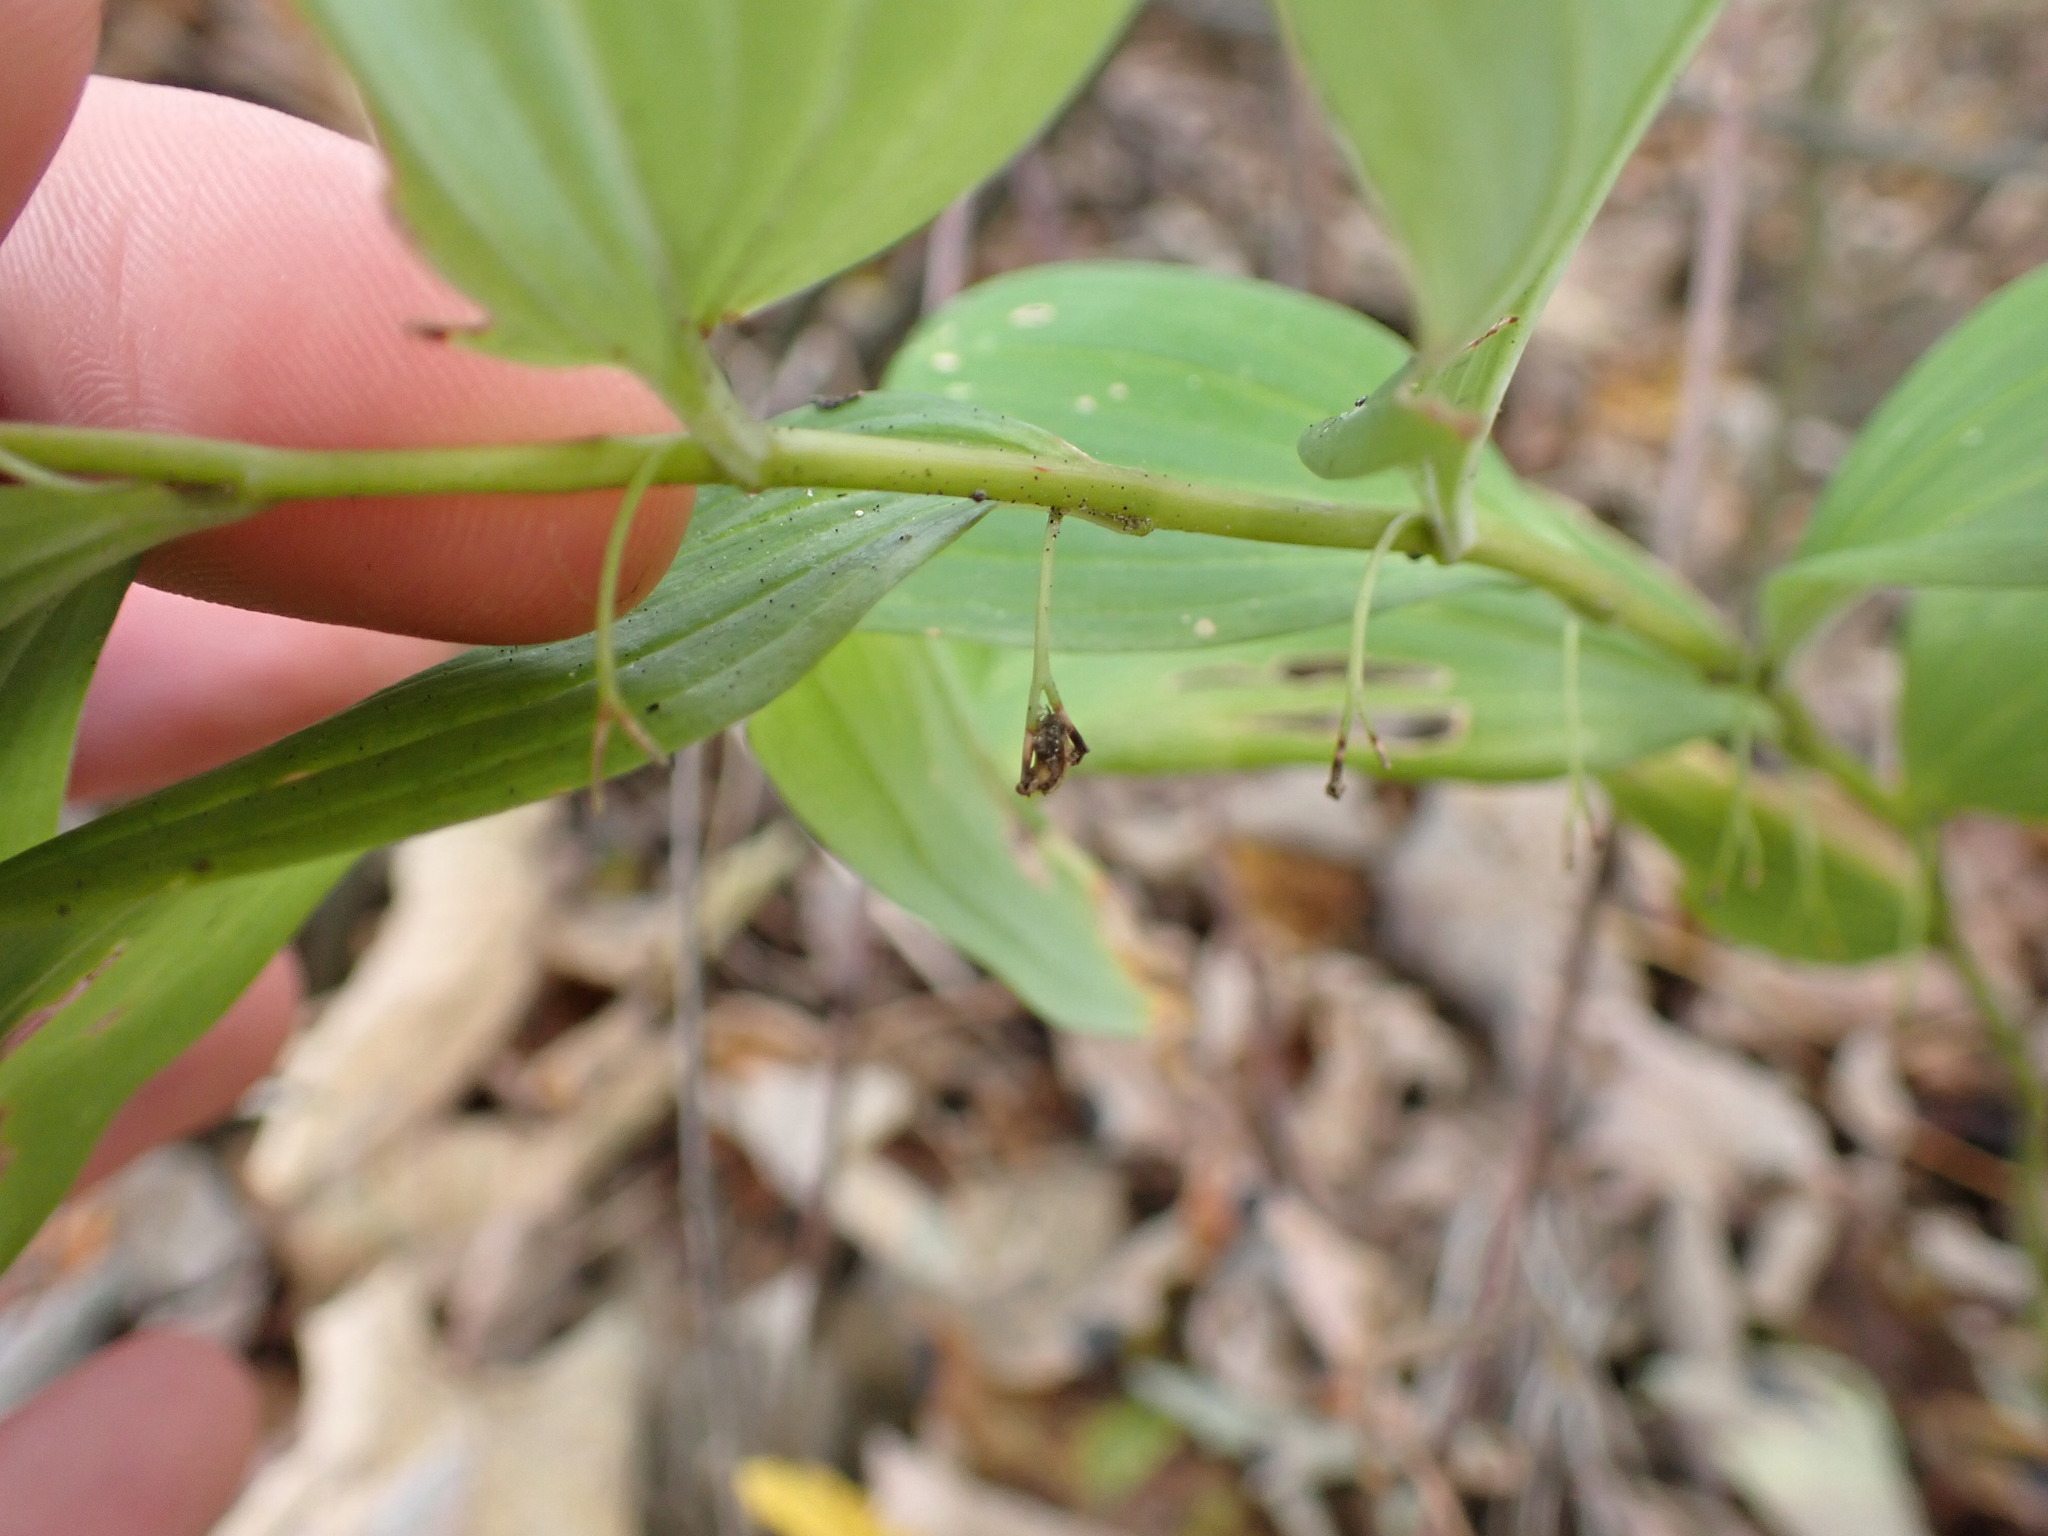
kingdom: Plantae
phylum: Tracheophyta
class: Liliopsida
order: Asparagales
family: Asparagaceae
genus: Polygonatum
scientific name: Polygonatum multiflorum
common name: Solomon's-seal
